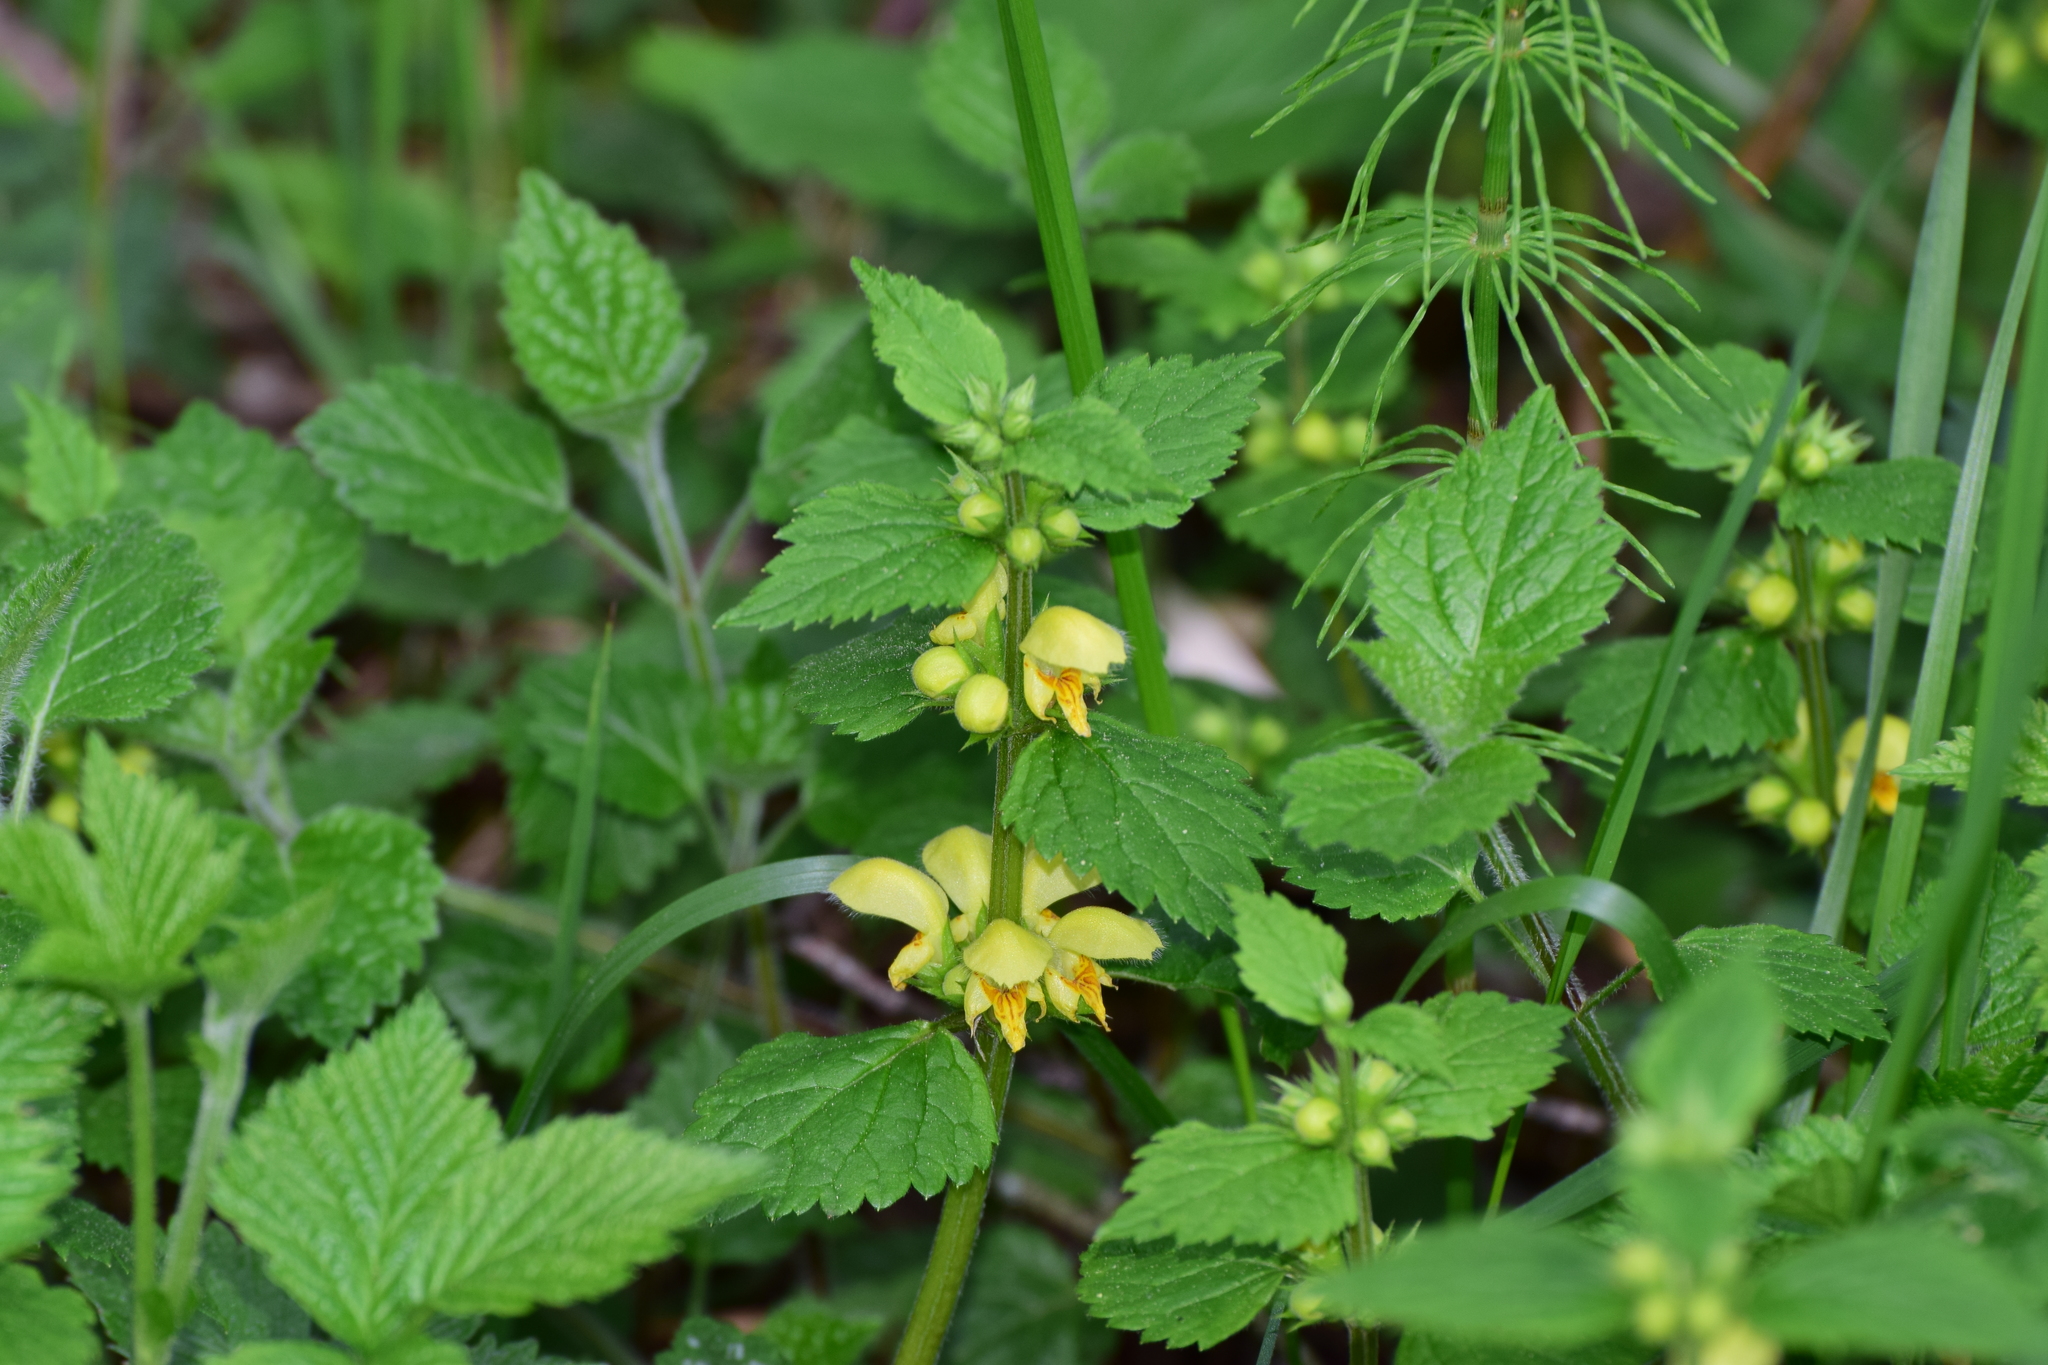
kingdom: Plantae
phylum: Tracheophyta
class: Magnoliopsida
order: Lamiales
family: Lamiaceae
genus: Lamium
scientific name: Lamium galeobdolon
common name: Yellow archangel
